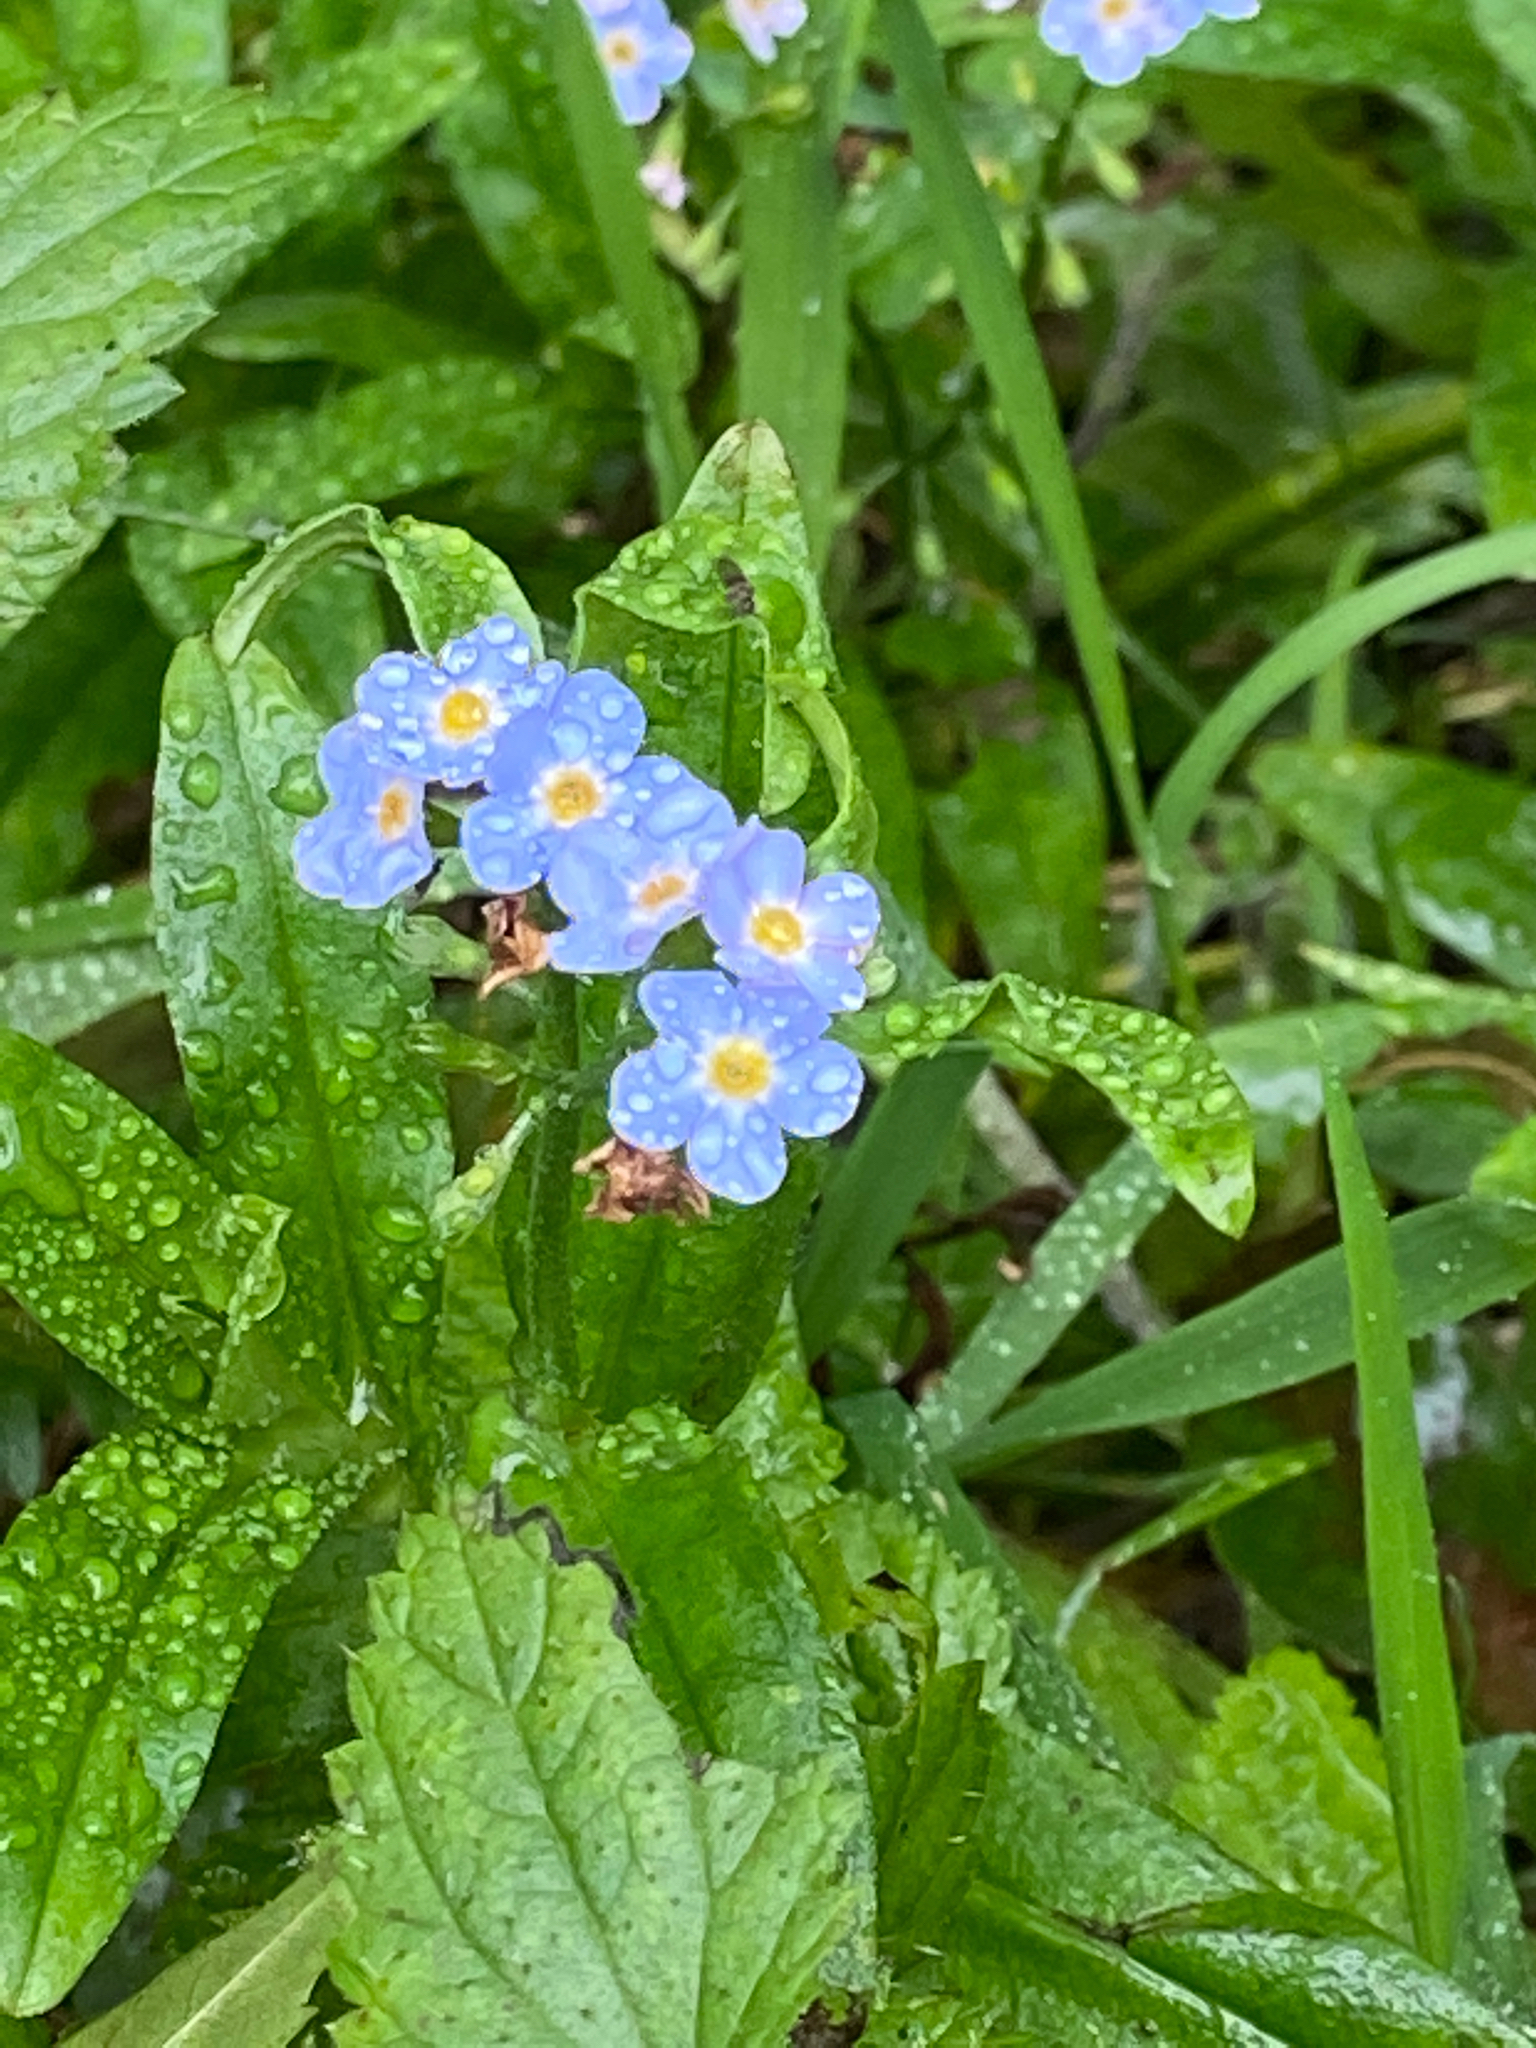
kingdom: Plantae
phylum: Tracheophyta
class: Magnoliopsida
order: Boraginales
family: Boraginaceae
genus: Myosotis
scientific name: Myosotis scorpioides
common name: Water forget-me-not
